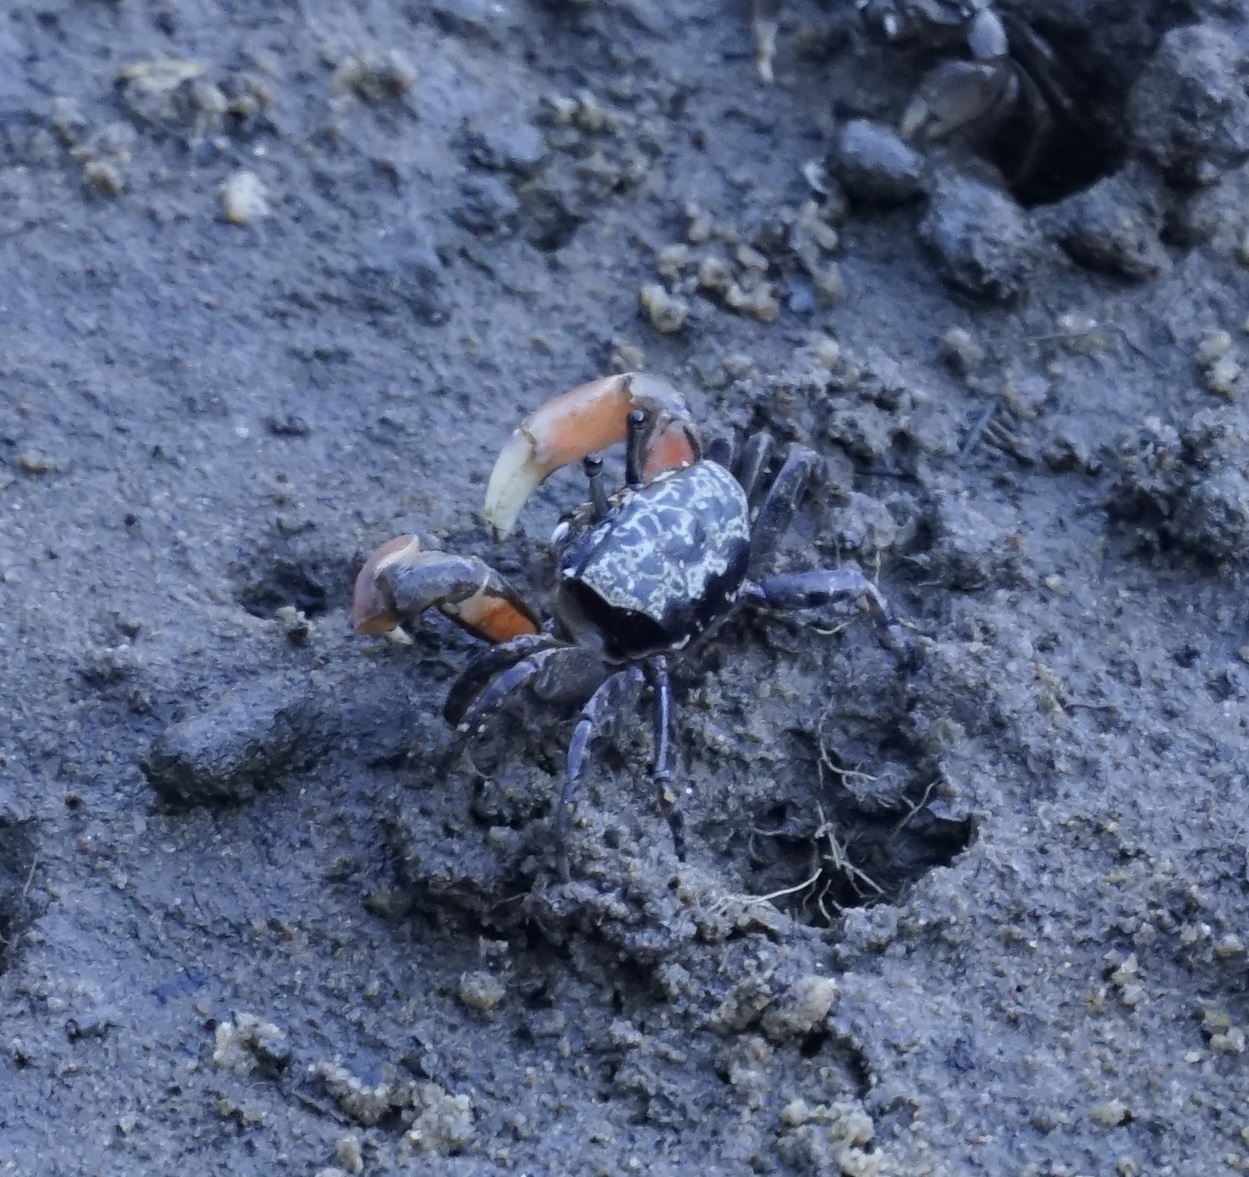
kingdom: Animalia
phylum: Arthropoda
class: Malacostraca
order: Decapoda
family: Heloeciidae
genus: Heloecius
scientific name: Heloecius cordiformis
